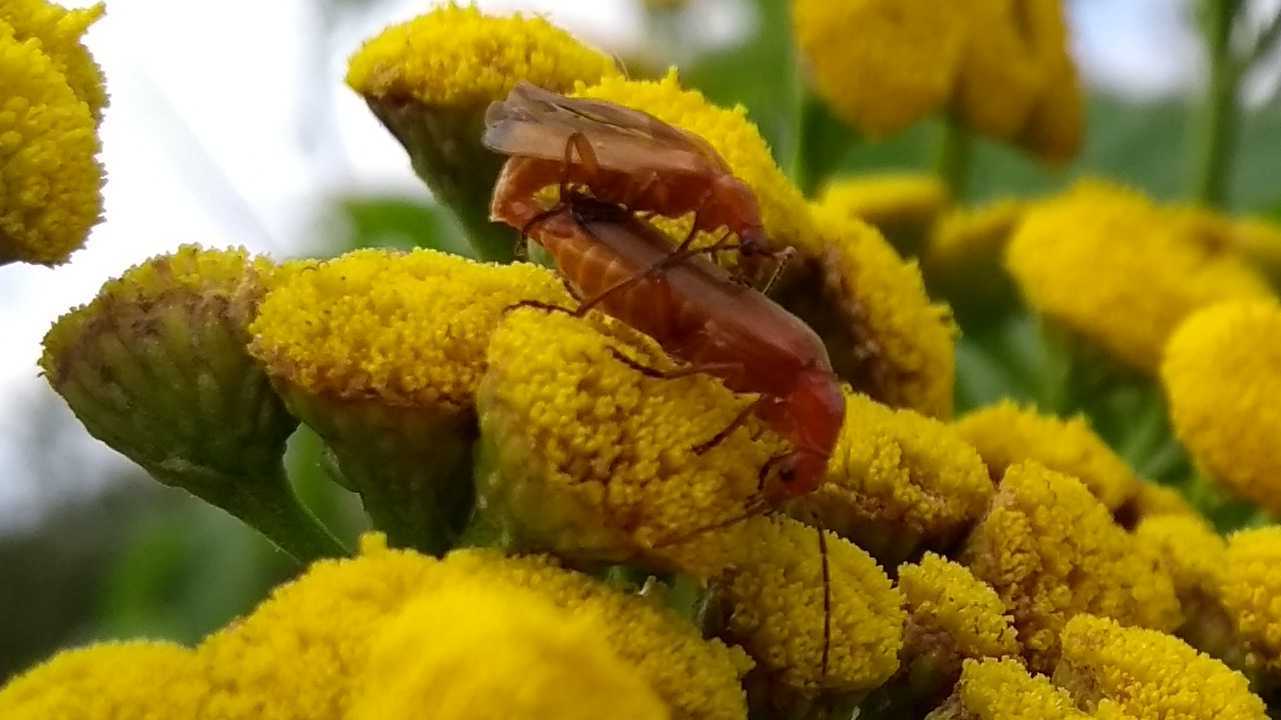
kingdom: Animalia
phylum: Arthropoda
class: Insecta
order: Coleoptera
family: Cantharidae
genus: Rhagonycha
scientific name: Rhagonycha fulva
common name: Common red soldier beetle
